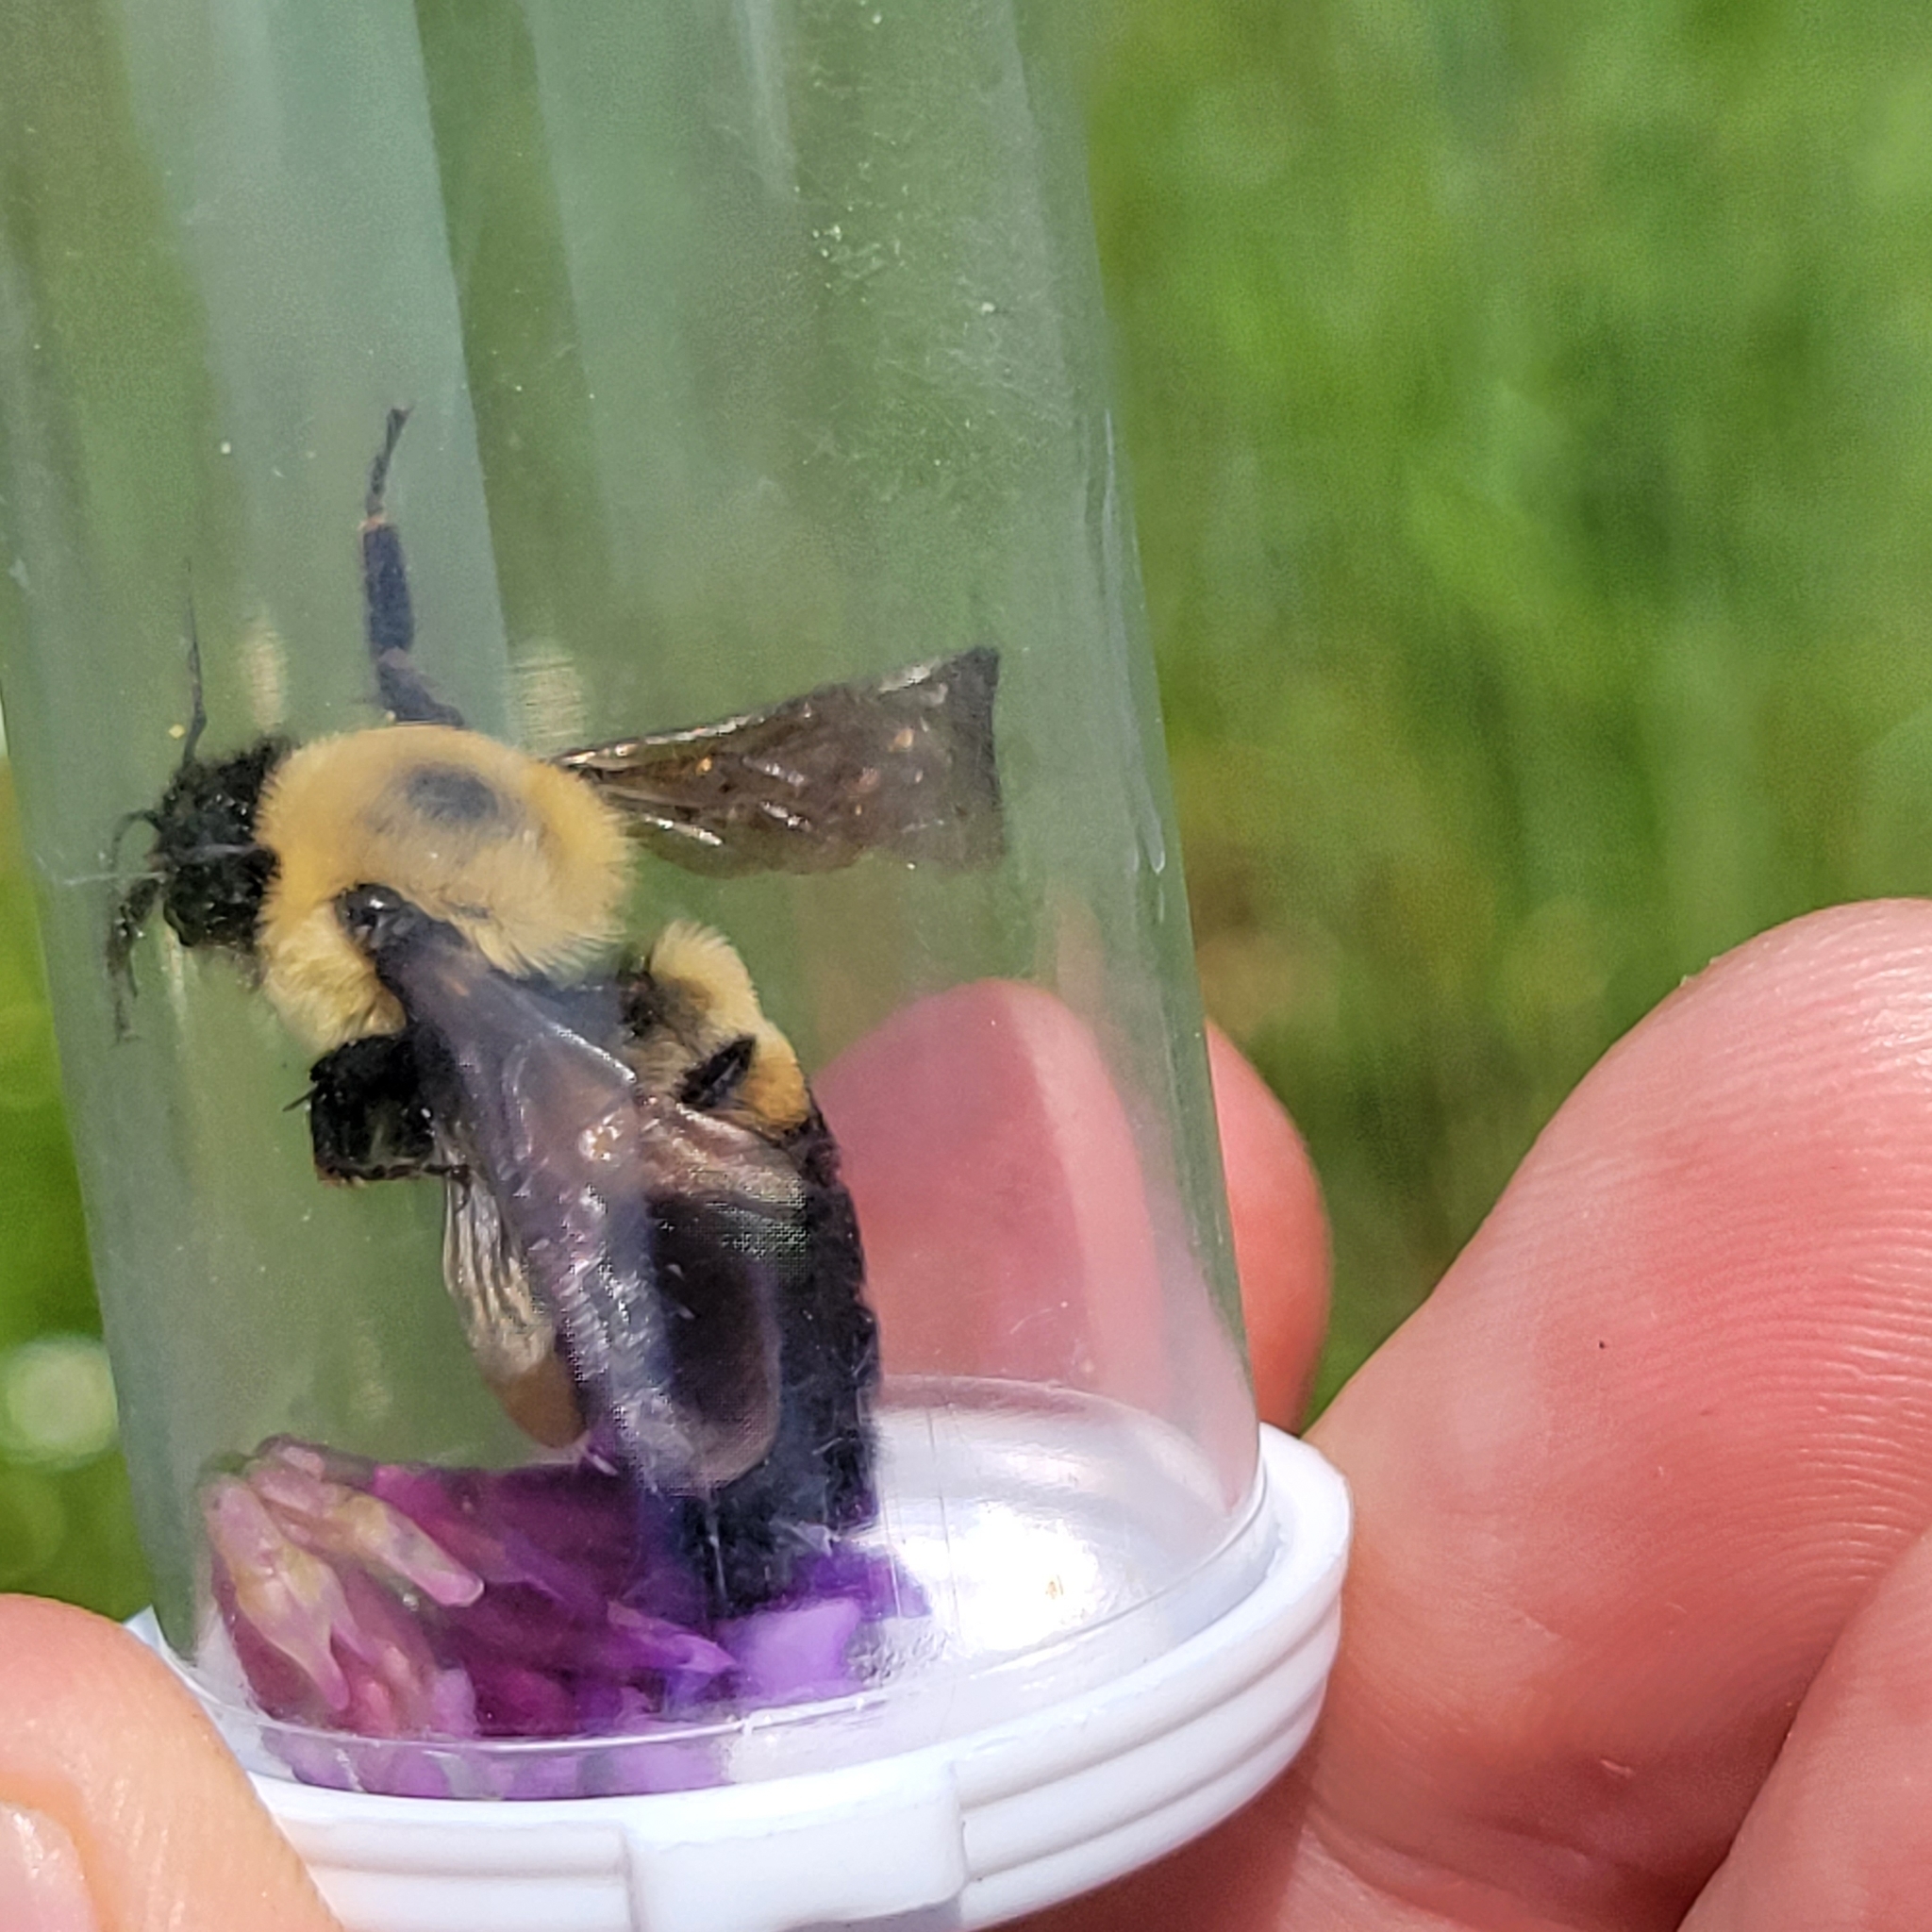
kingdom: Animalia
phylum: Arthropoda
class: Insecta
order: Hymenoptera
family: Apidae
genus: Bombus
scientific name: Bombus griseocollis
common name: Brown-belted bumble bee
